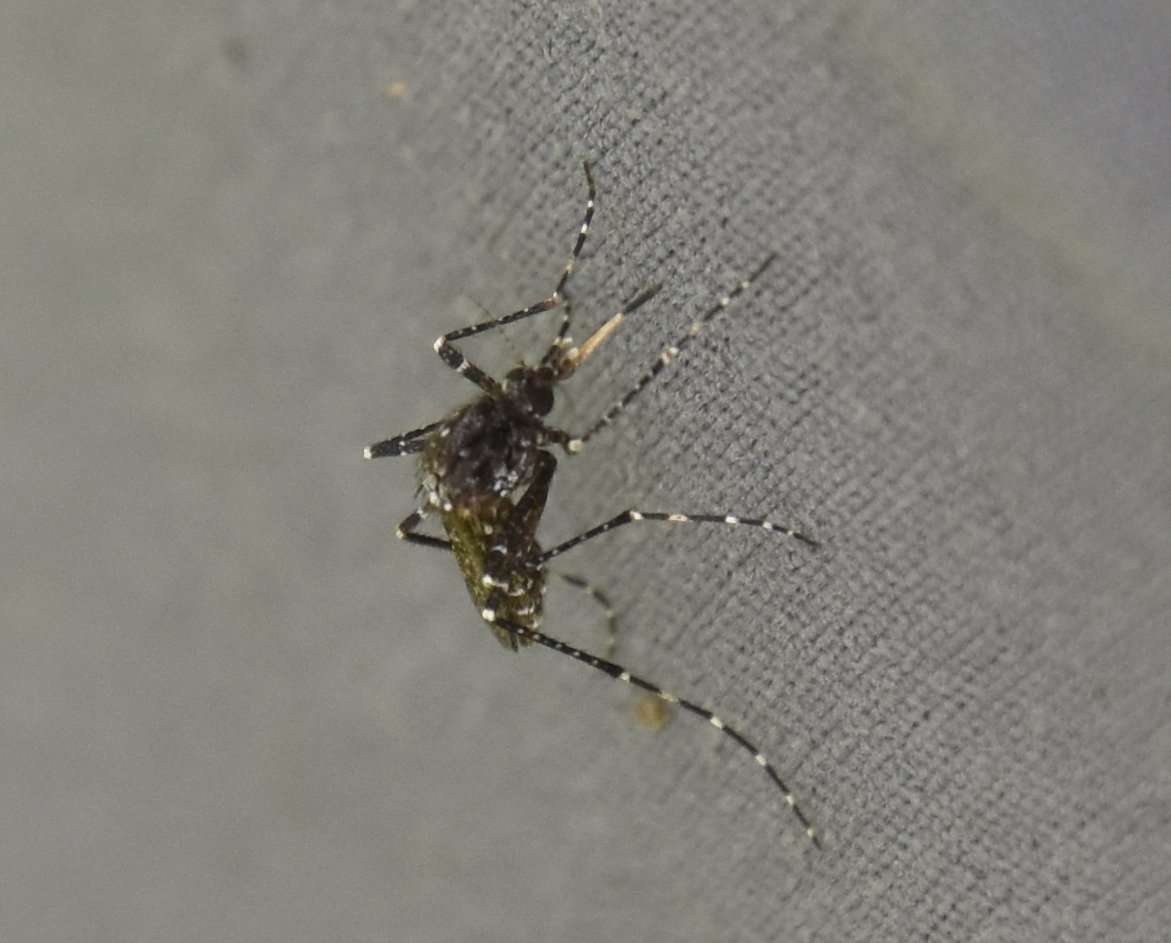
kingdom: Animalia
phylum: Arthropoda
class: Insecta
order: Diptera
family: Culicidae
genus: Psorophora
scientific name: Psorophora columbiae
